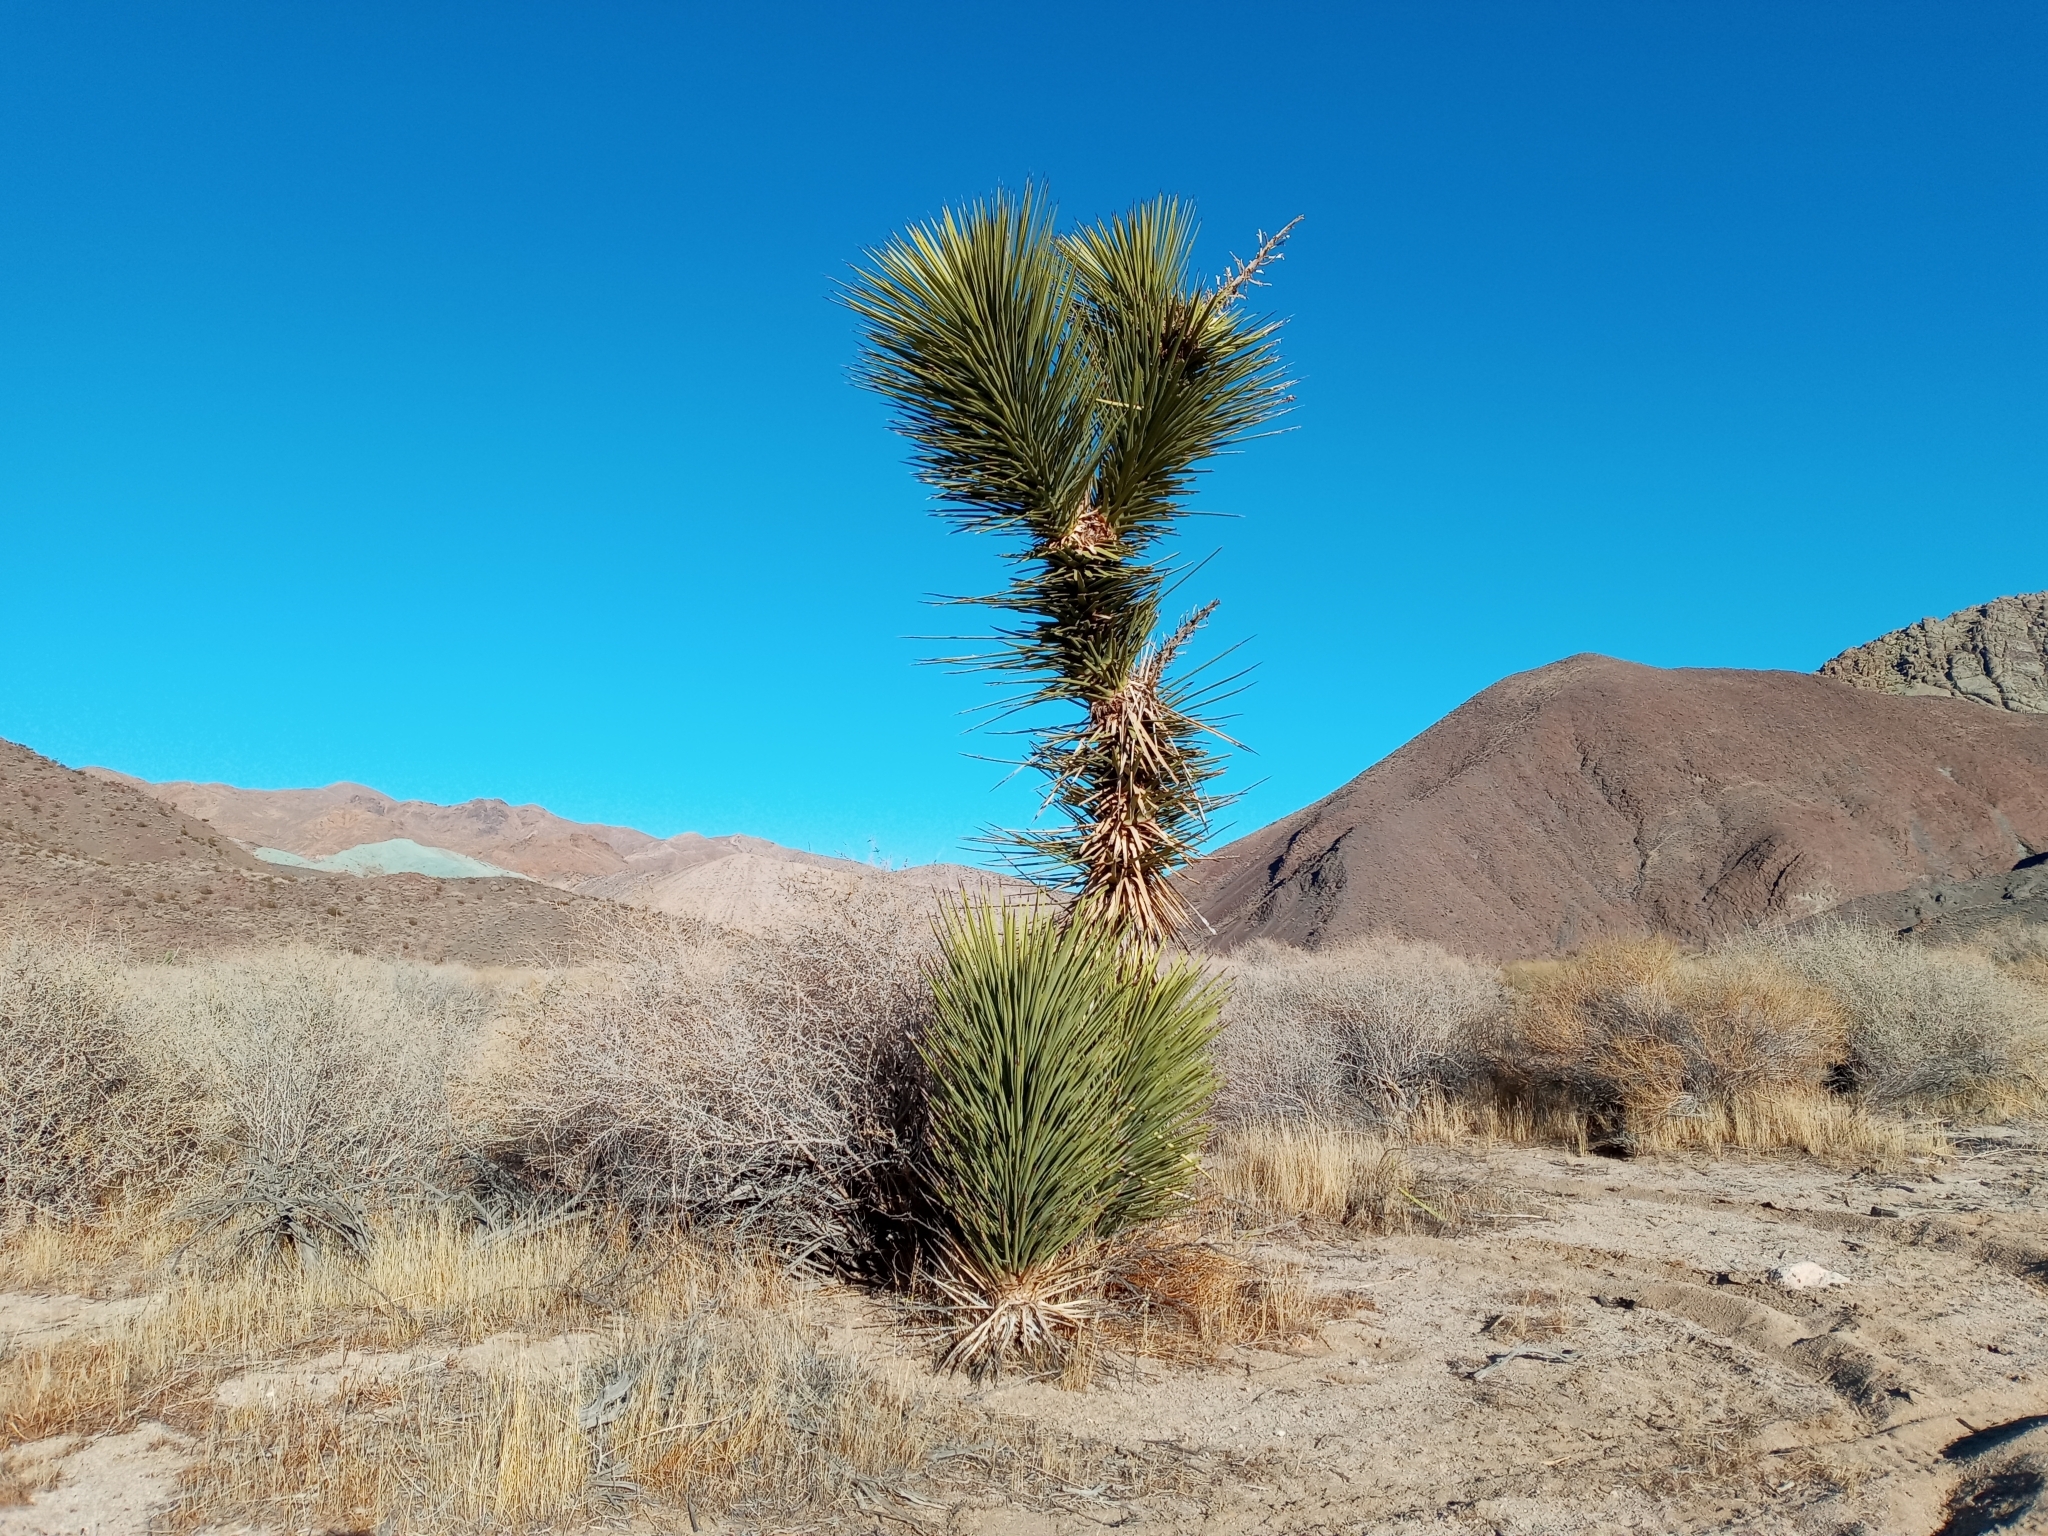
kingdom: Plantae
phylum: Tracheophyta
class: Liliopsida
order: Asparagales
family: Asparagaceae
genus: Yucca
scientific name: Yucca brevifolia
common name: Joshua tree
